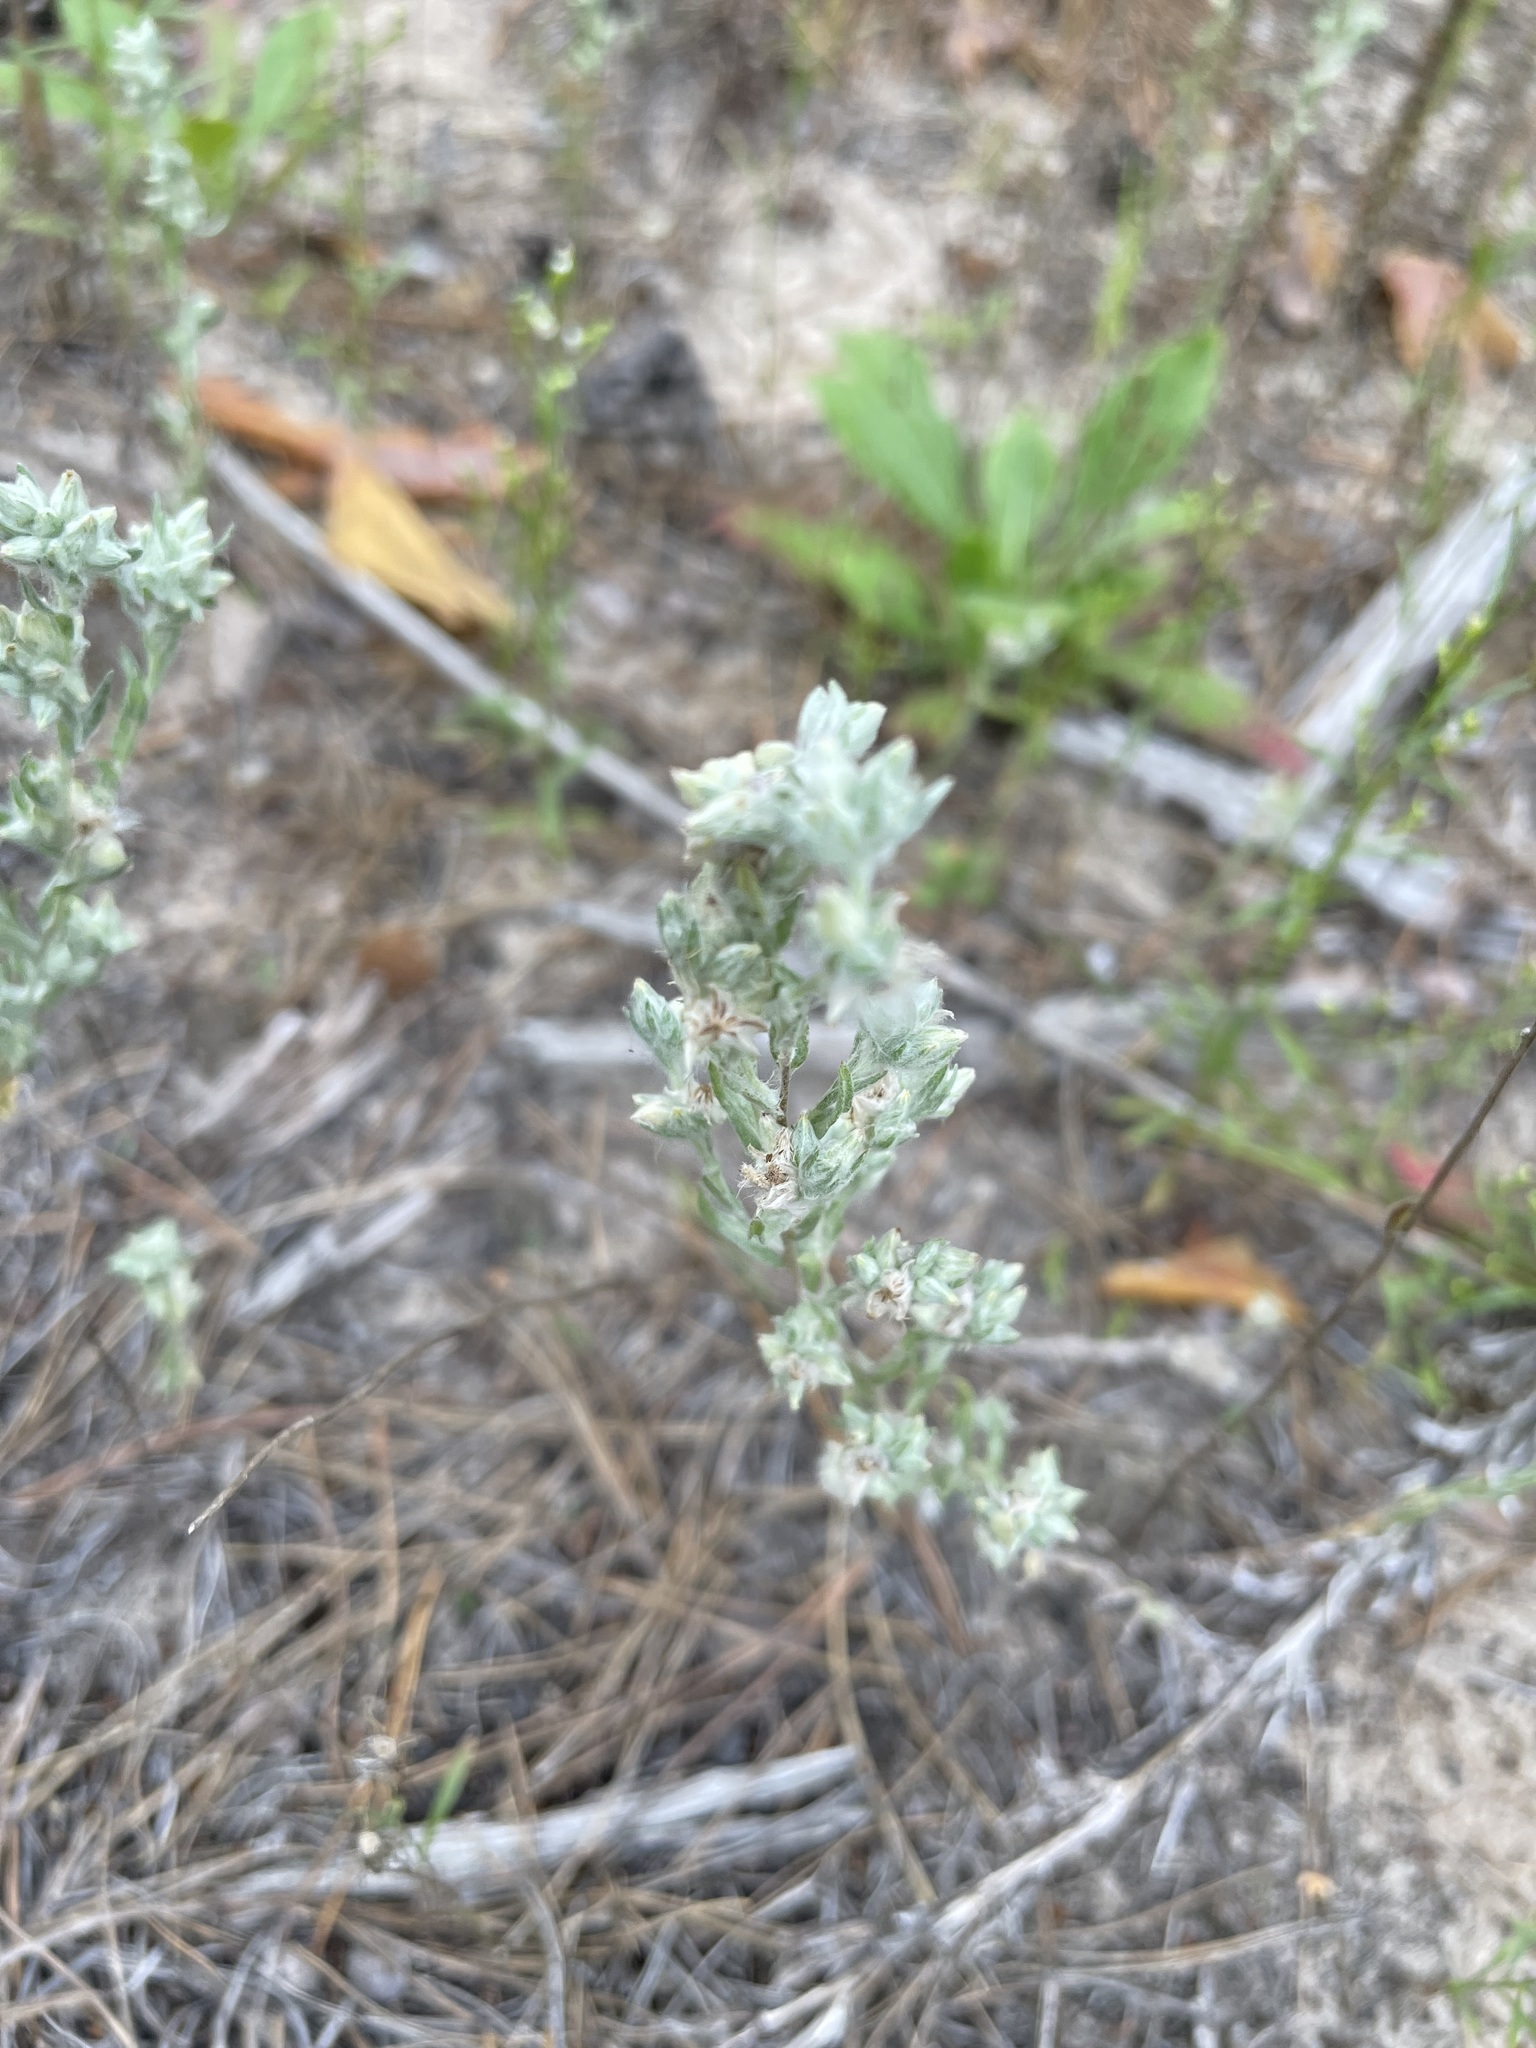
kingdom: Plantae
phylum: Tracheophyta
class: Magnoliopsida
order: Asterales
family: Asteraceae
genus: Filago
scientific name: Filago arvensis
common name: Field cudweed
